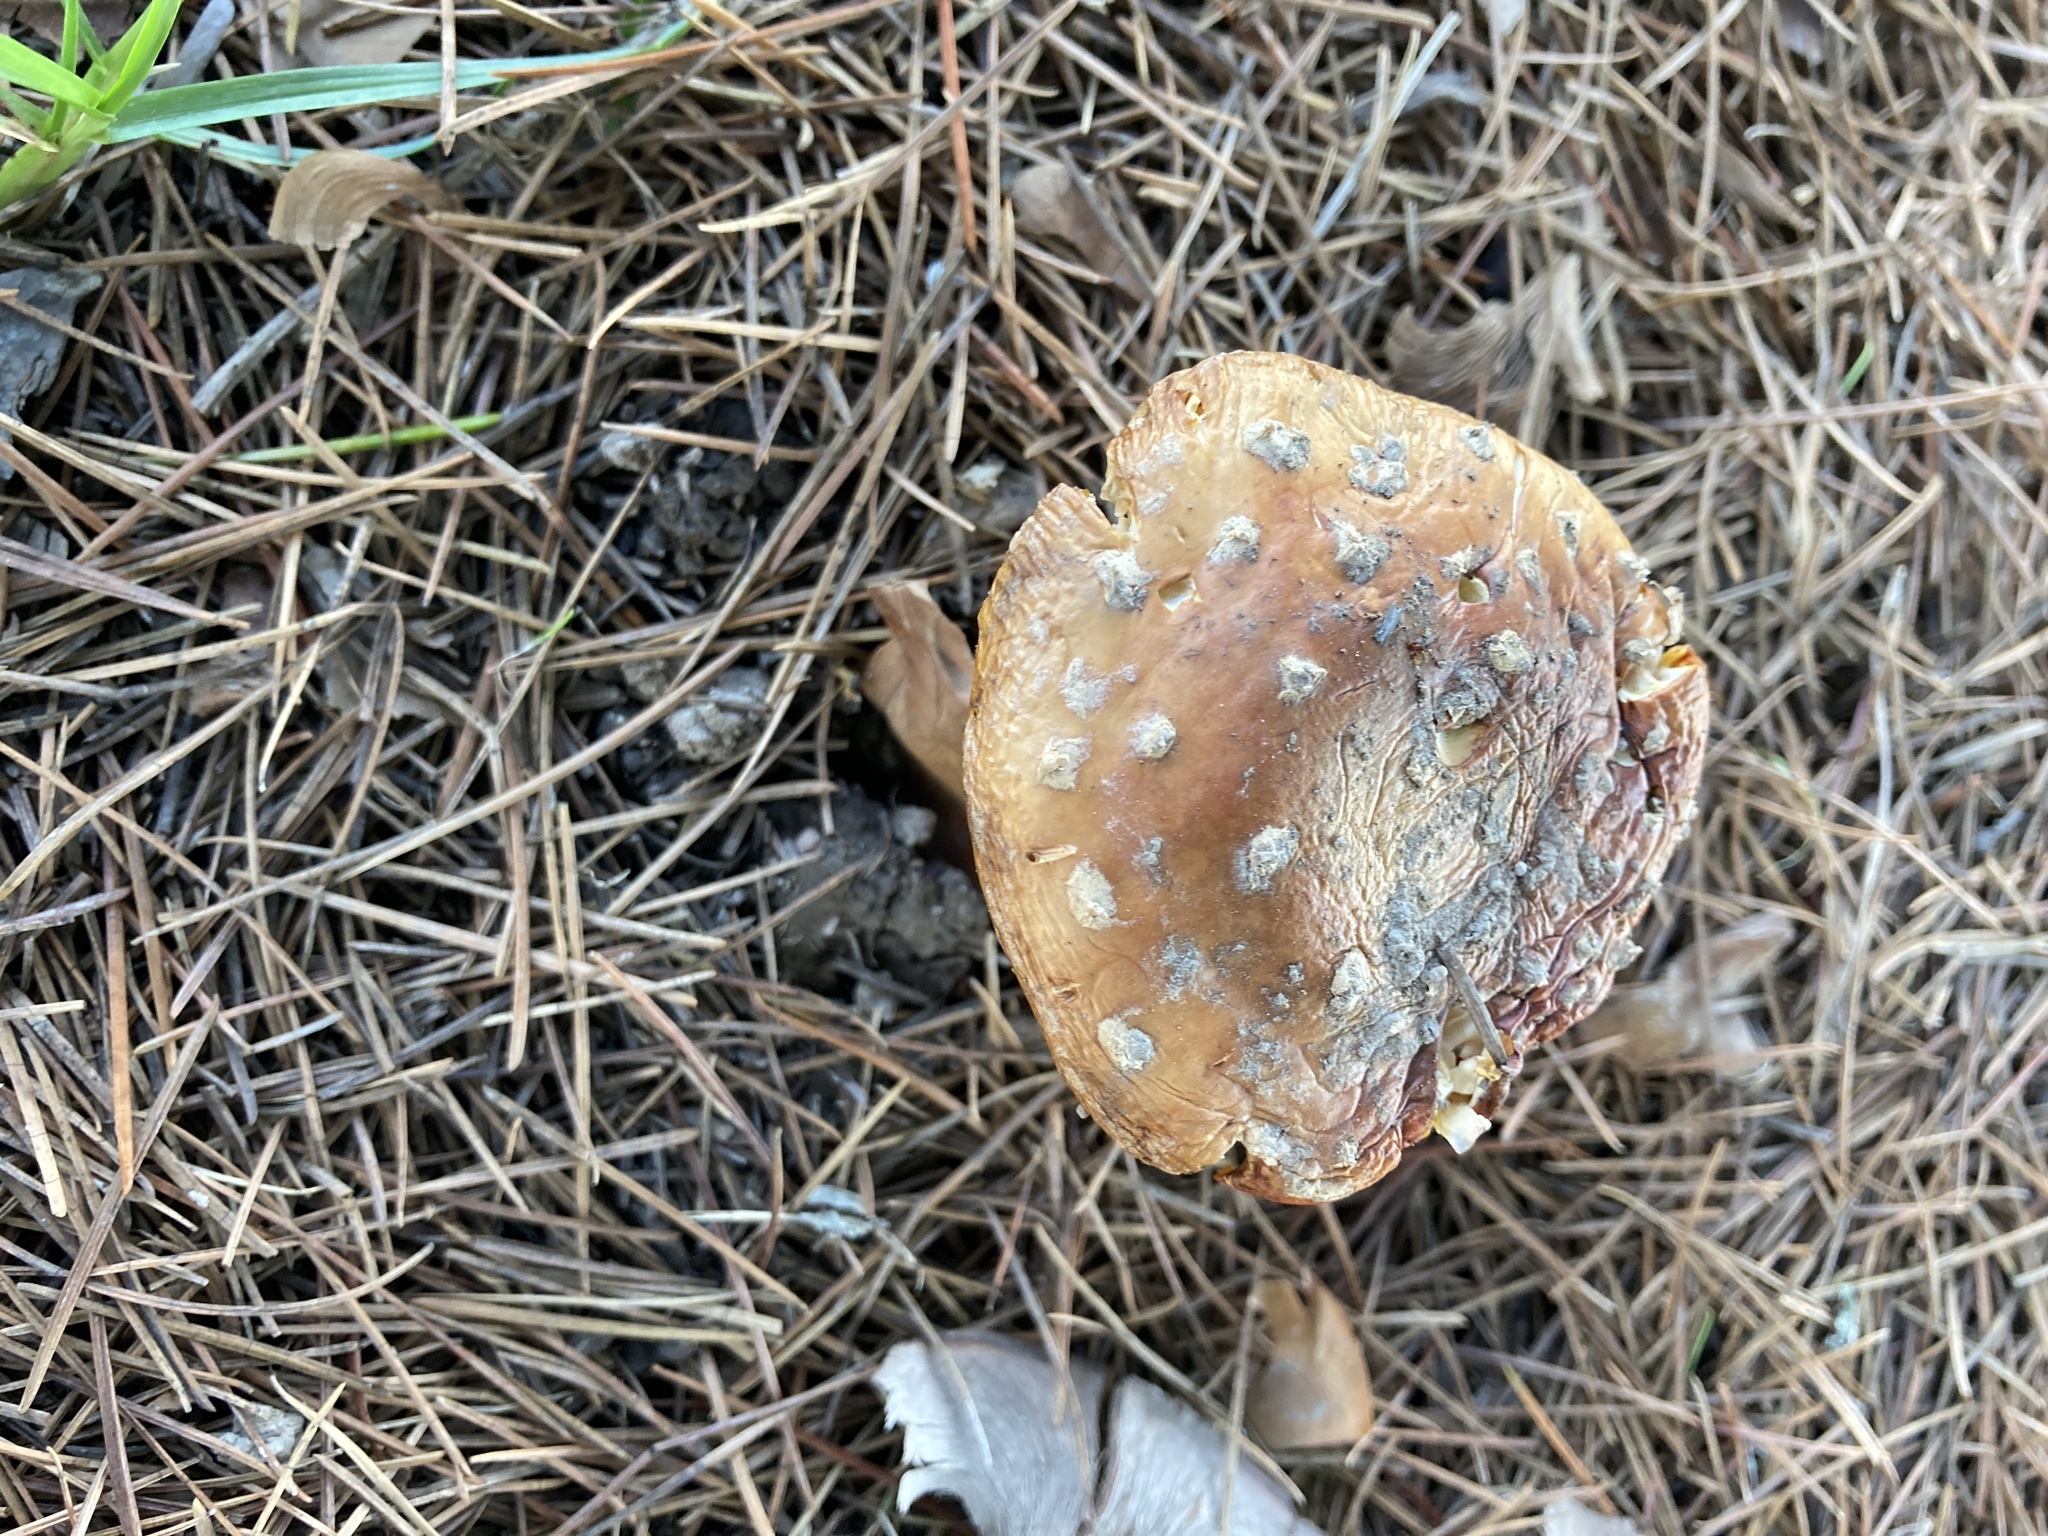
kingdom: Fungi
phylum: Basidiomycota
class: Agaricomycetes
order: Agaricales
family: Amanitaceae
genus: Amanita
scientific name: Amanita muscaria
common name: Fly agaric
